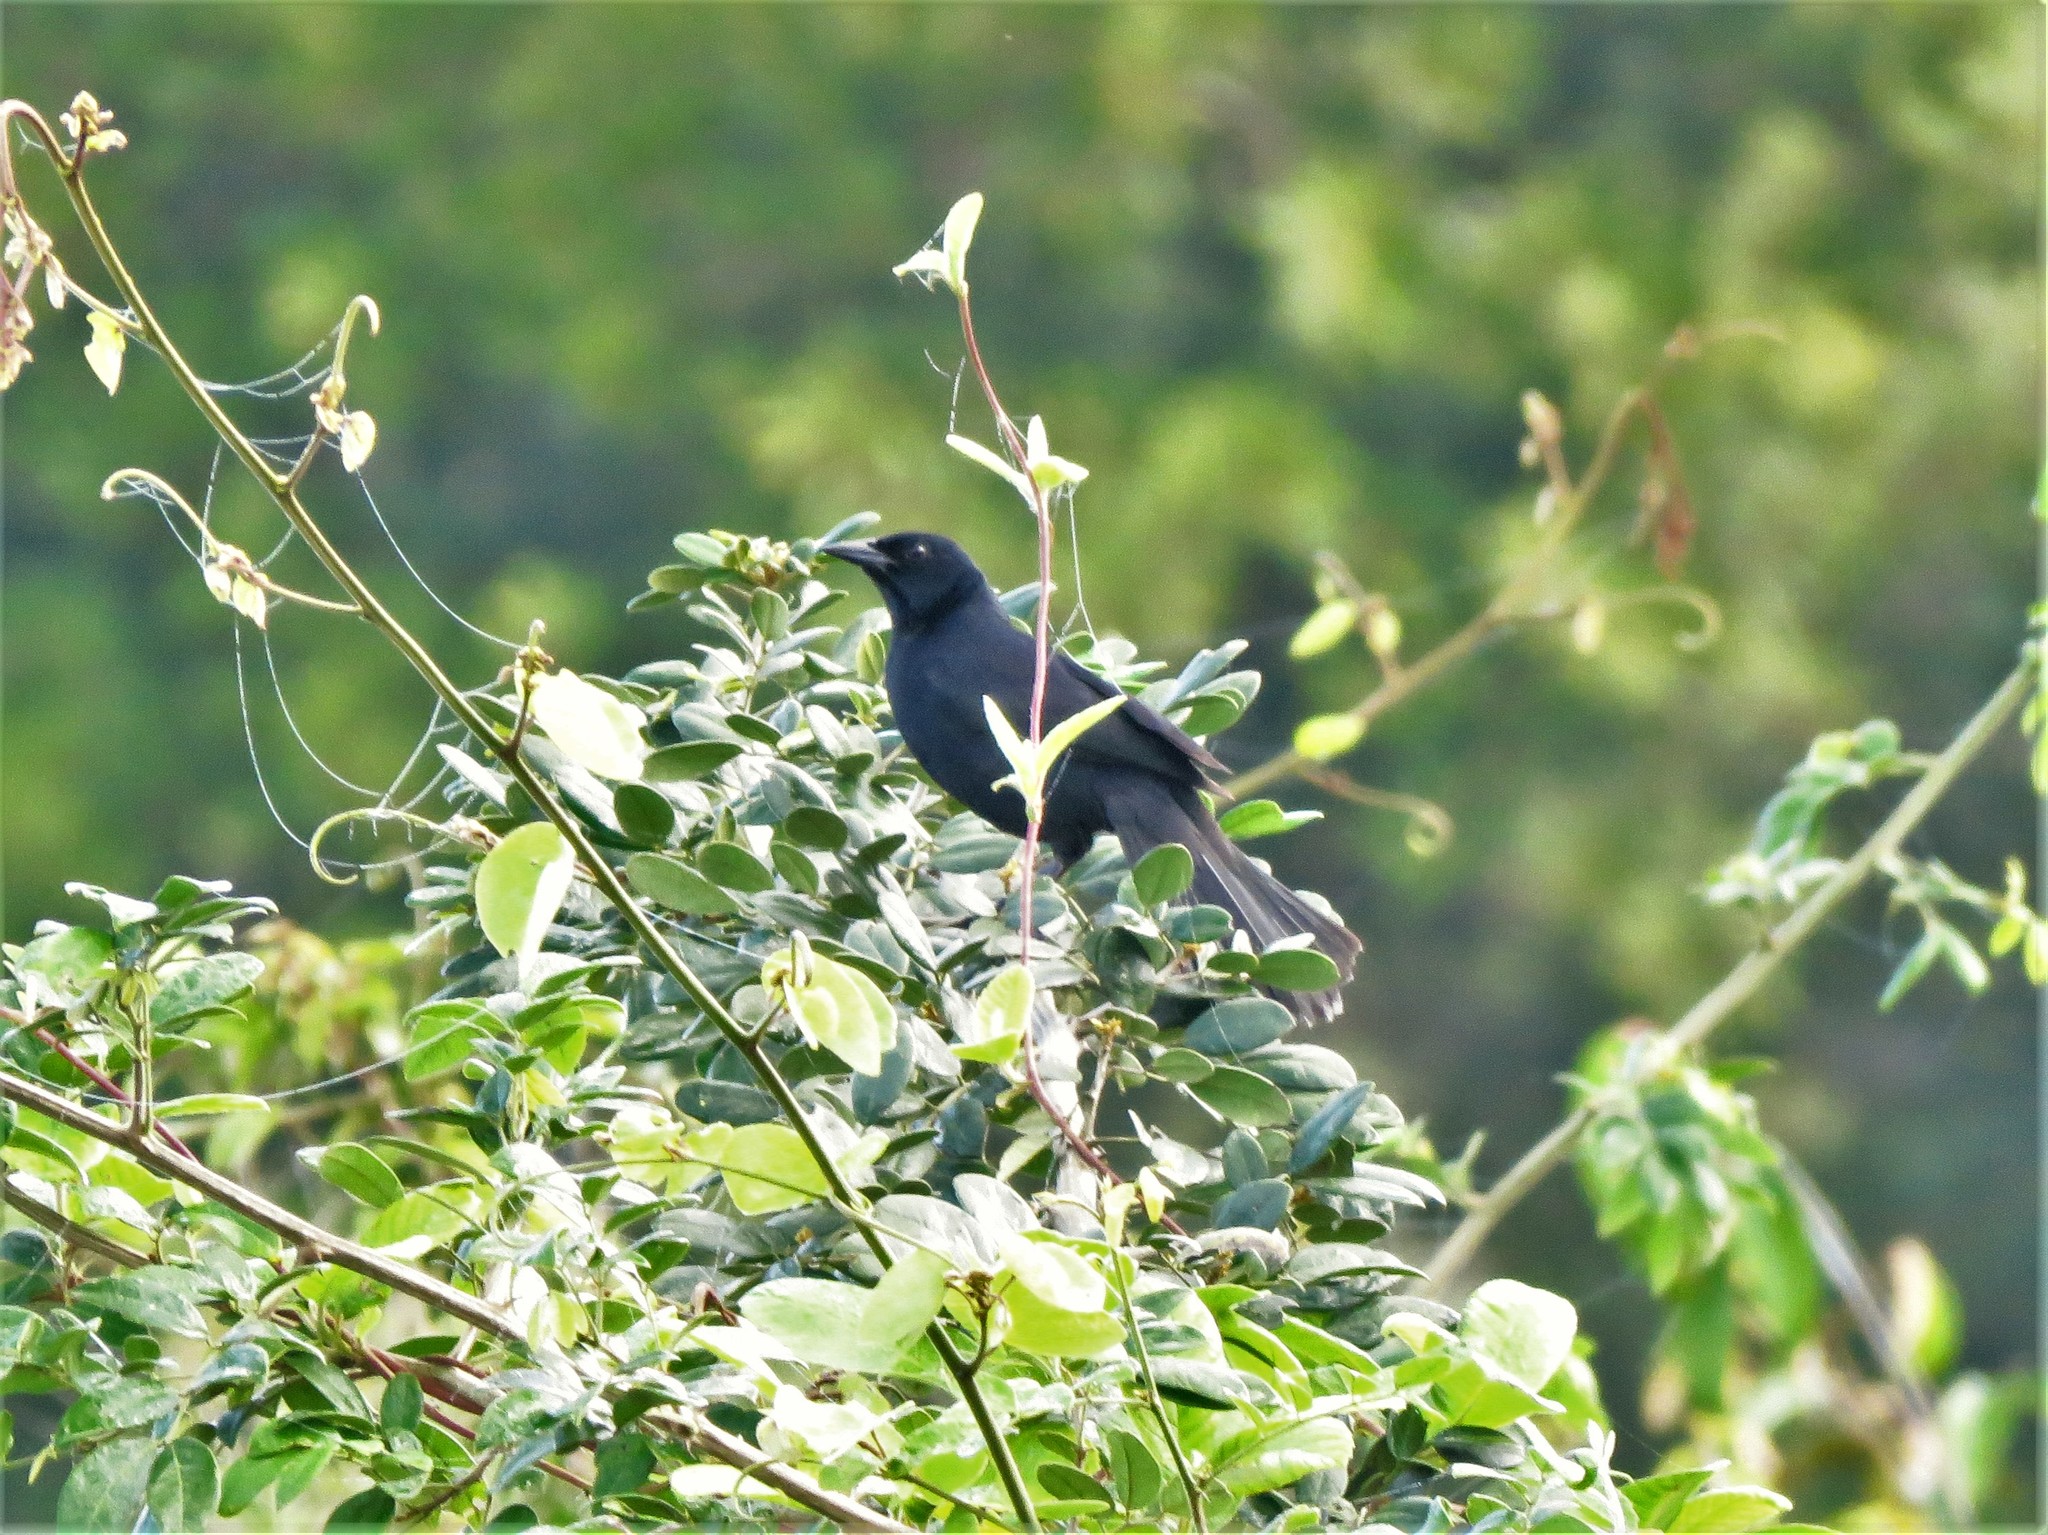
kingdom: Animalia
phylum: Chordata
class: Aves
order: Passeriformes
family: Icteridae
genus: Dives
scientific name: Dives dives
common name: Melodious blackbird
